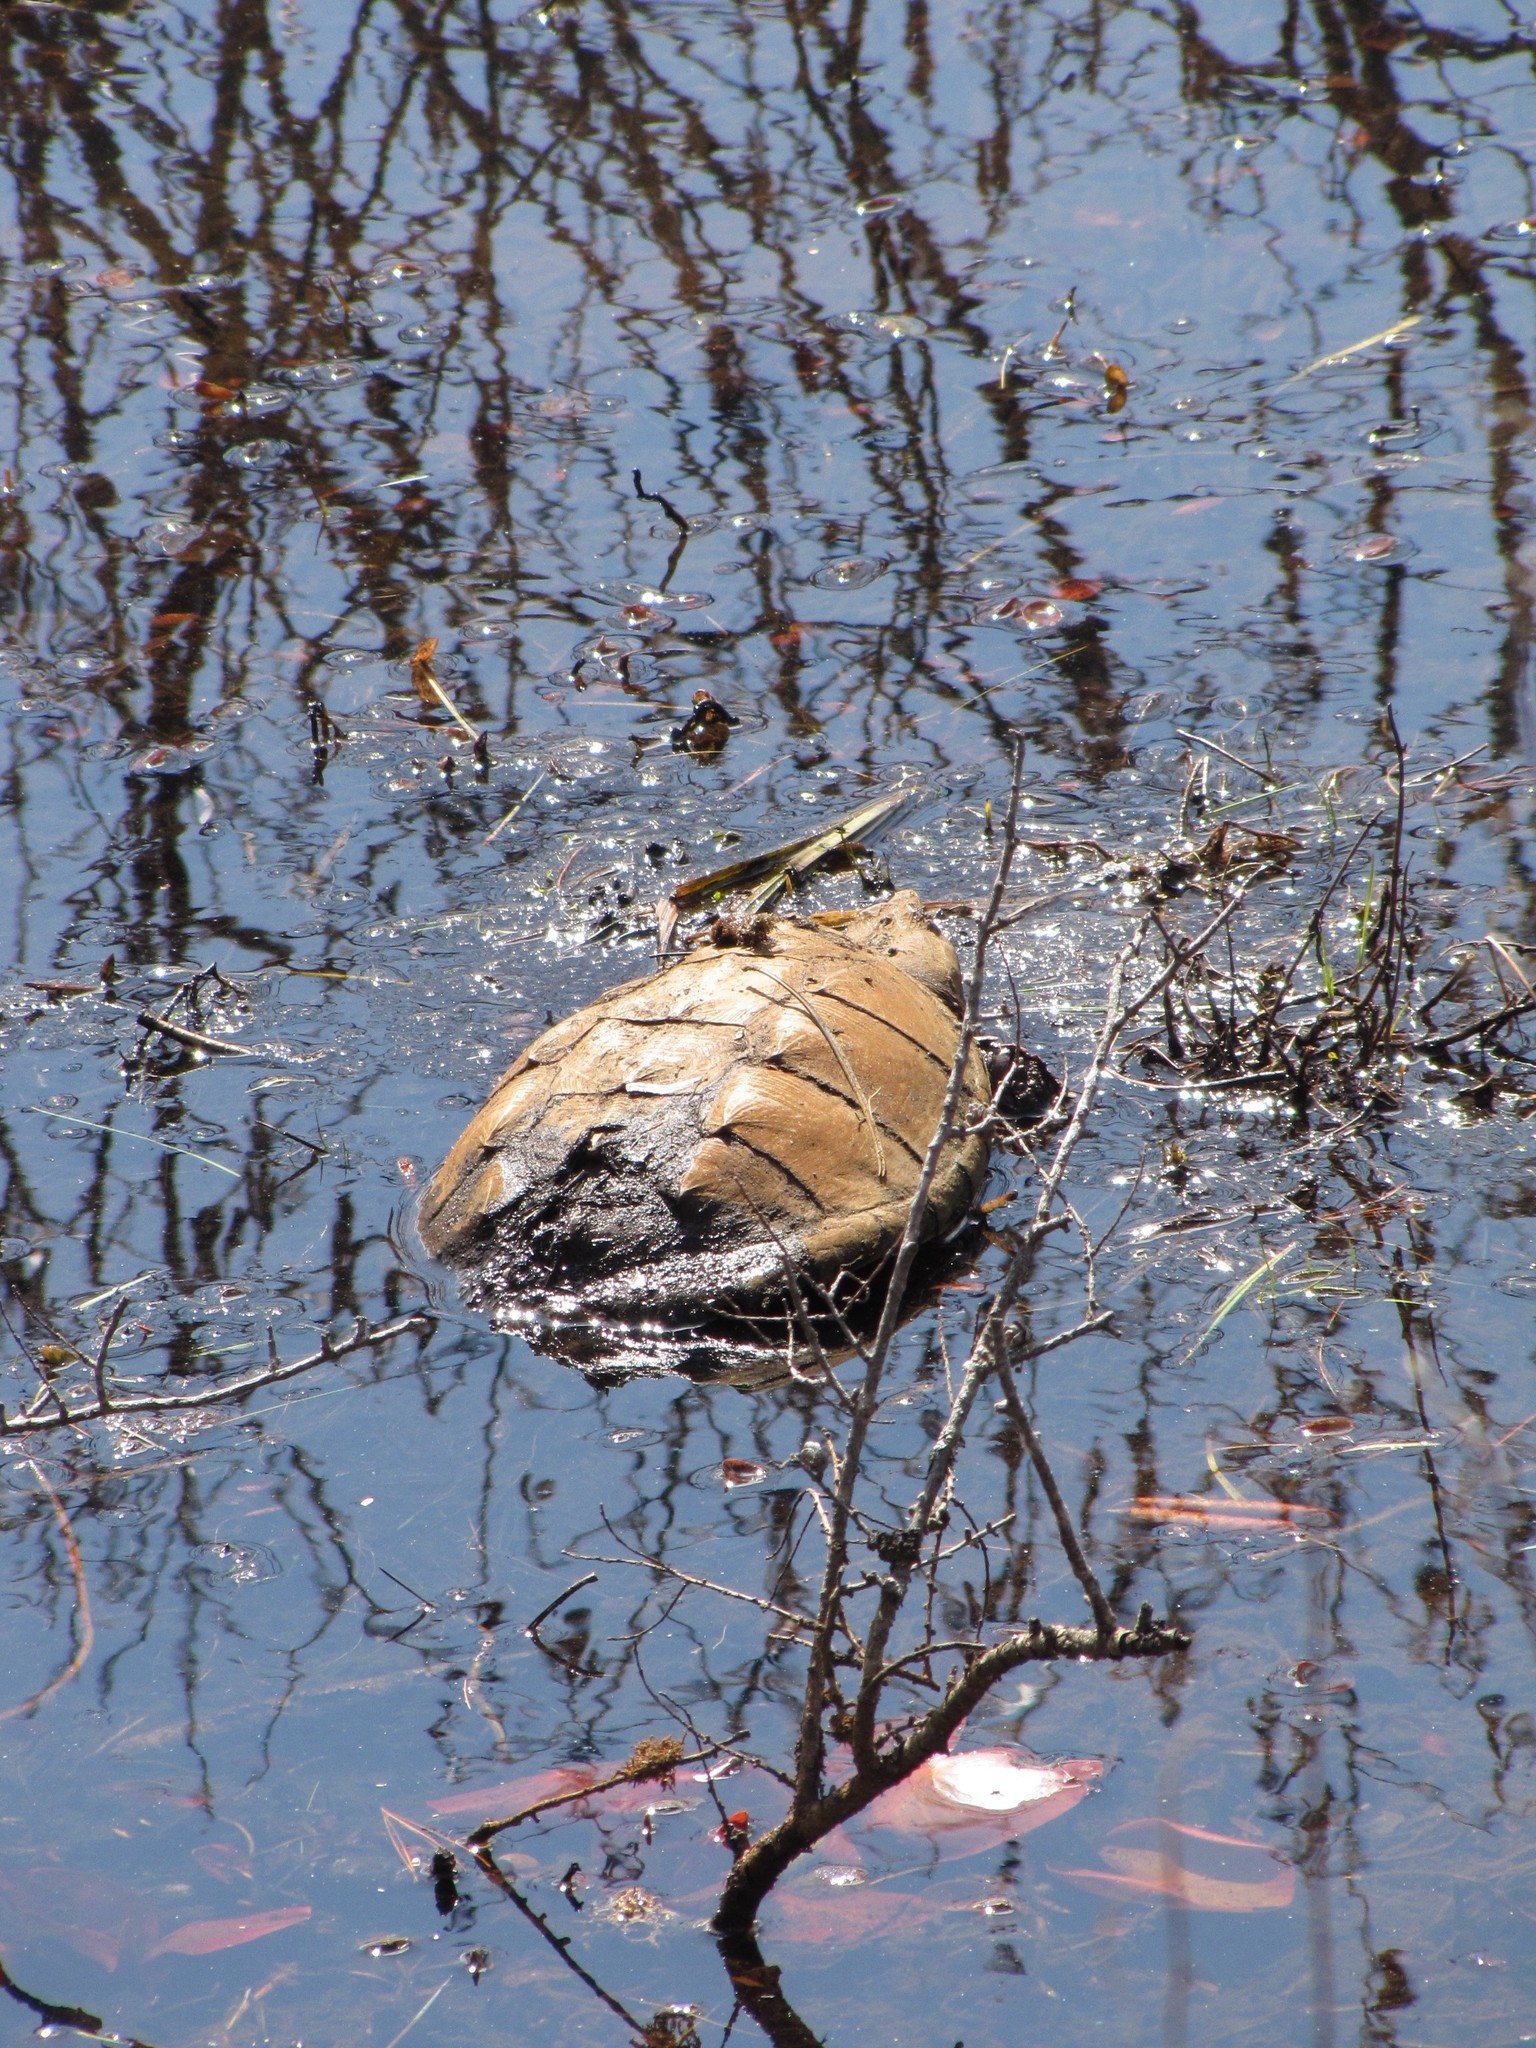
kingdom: Animalia
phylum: Chordata
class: Testudines
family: Chelydridae
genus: Chelydra
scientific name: Chelydra serpentina
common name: Common snapping turtle
